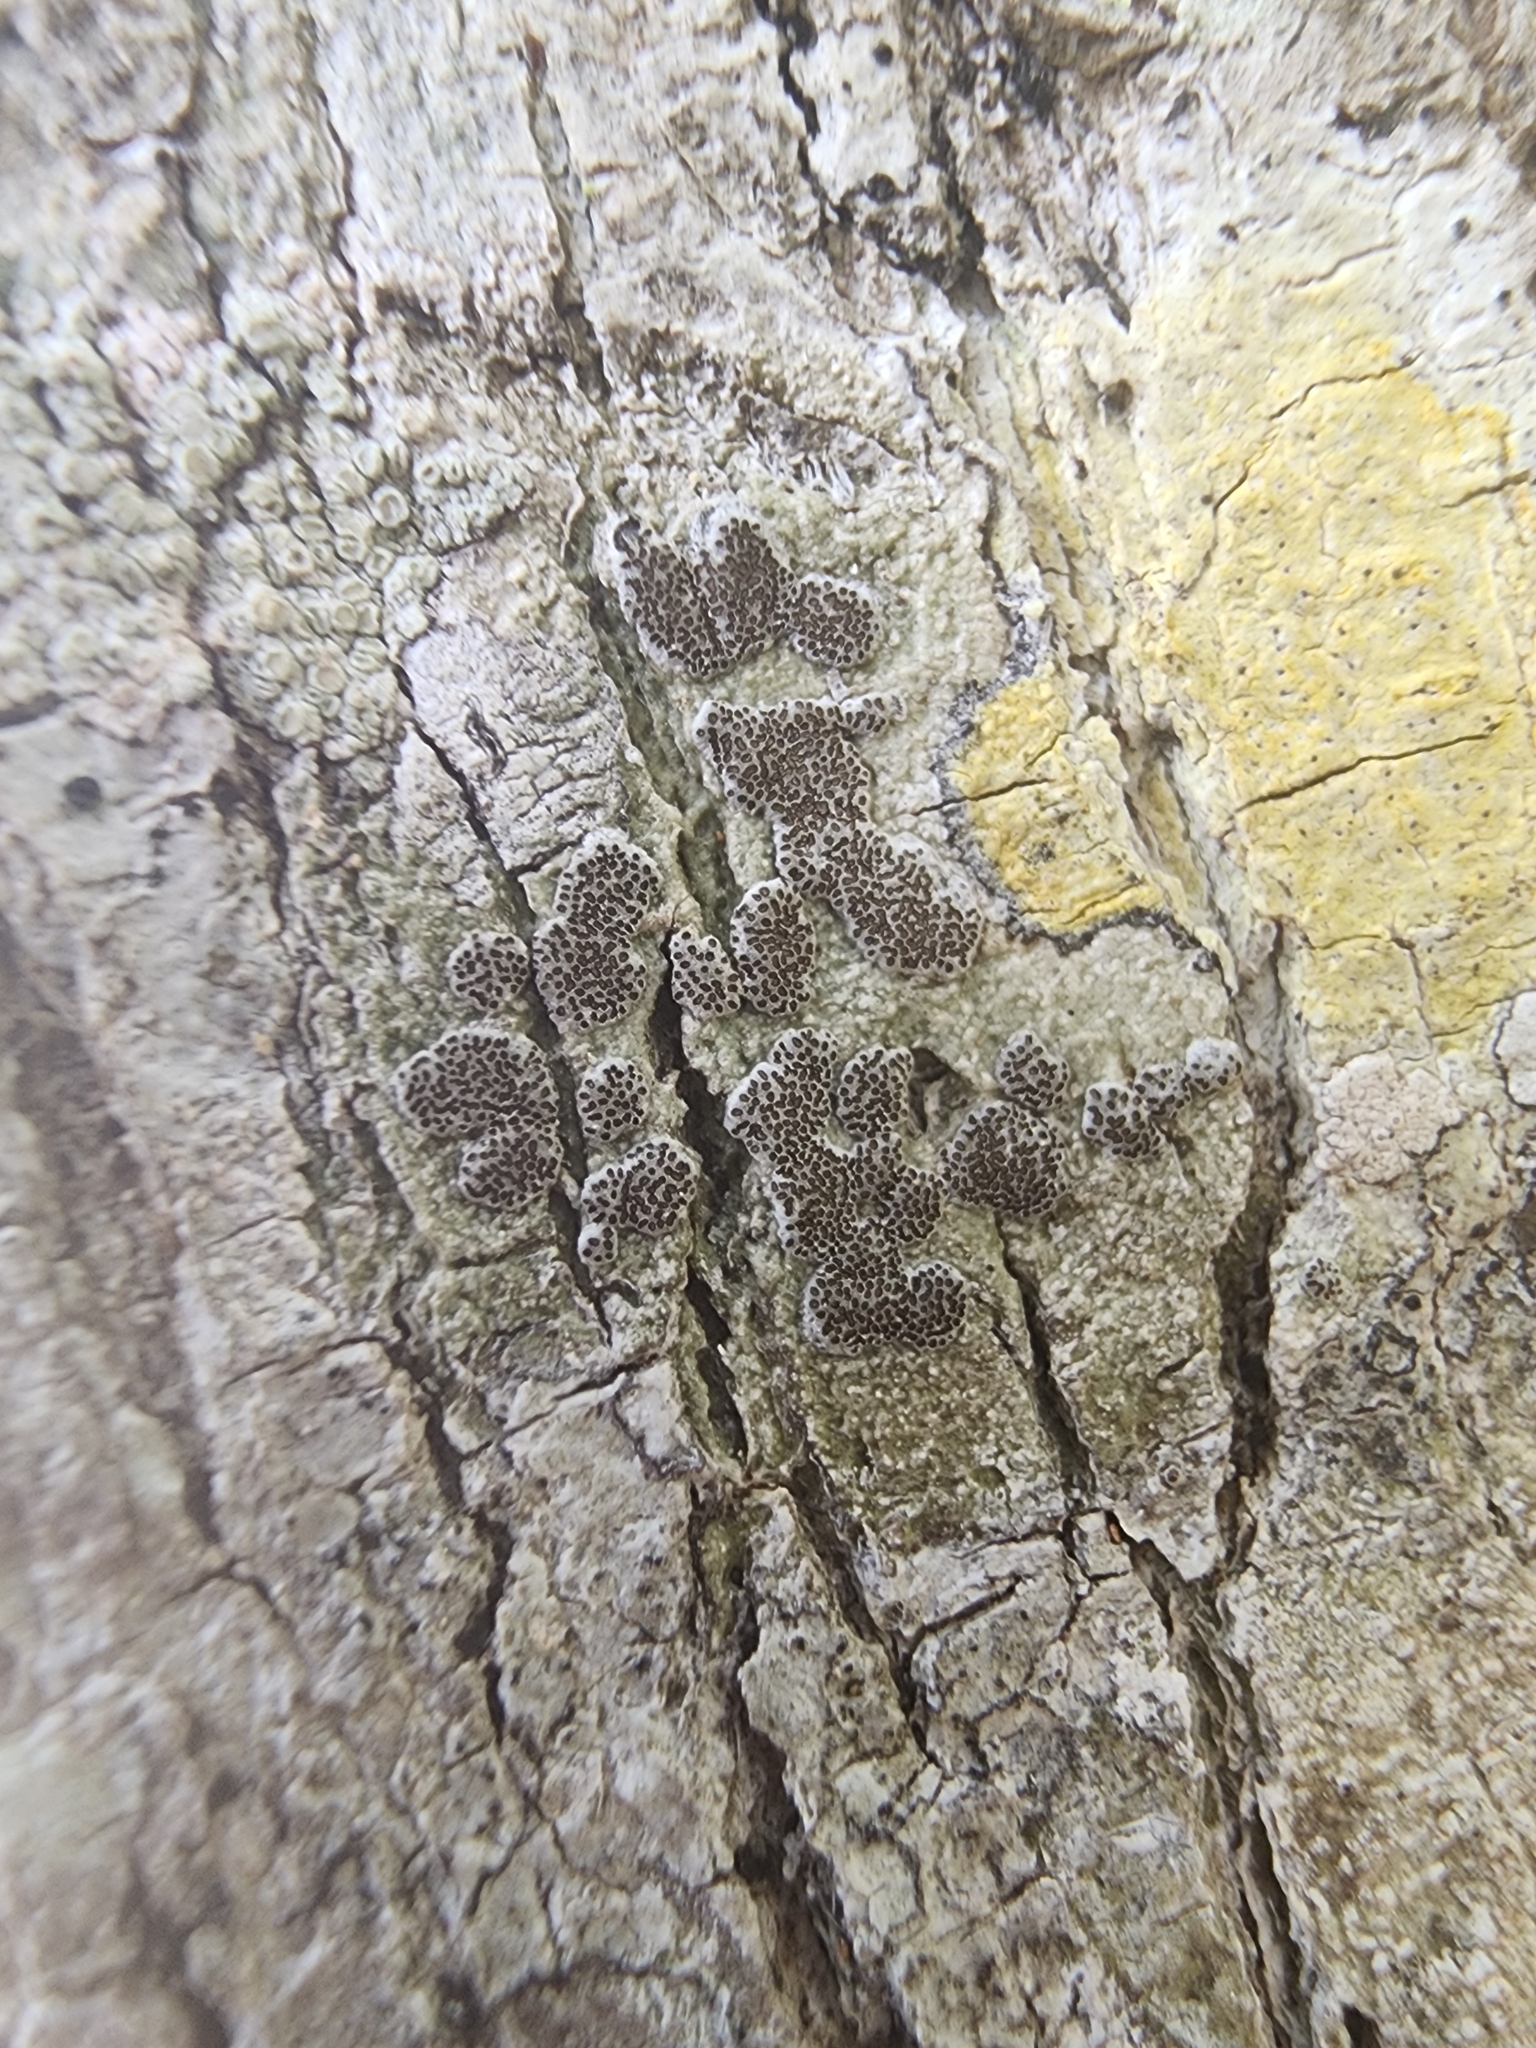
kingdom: Fungi
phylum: Ascomycota
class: Lecanoromycetes
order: Ostropales
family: Graphidaceae
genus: Glyphis
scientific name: Glyphis cicatricosa
